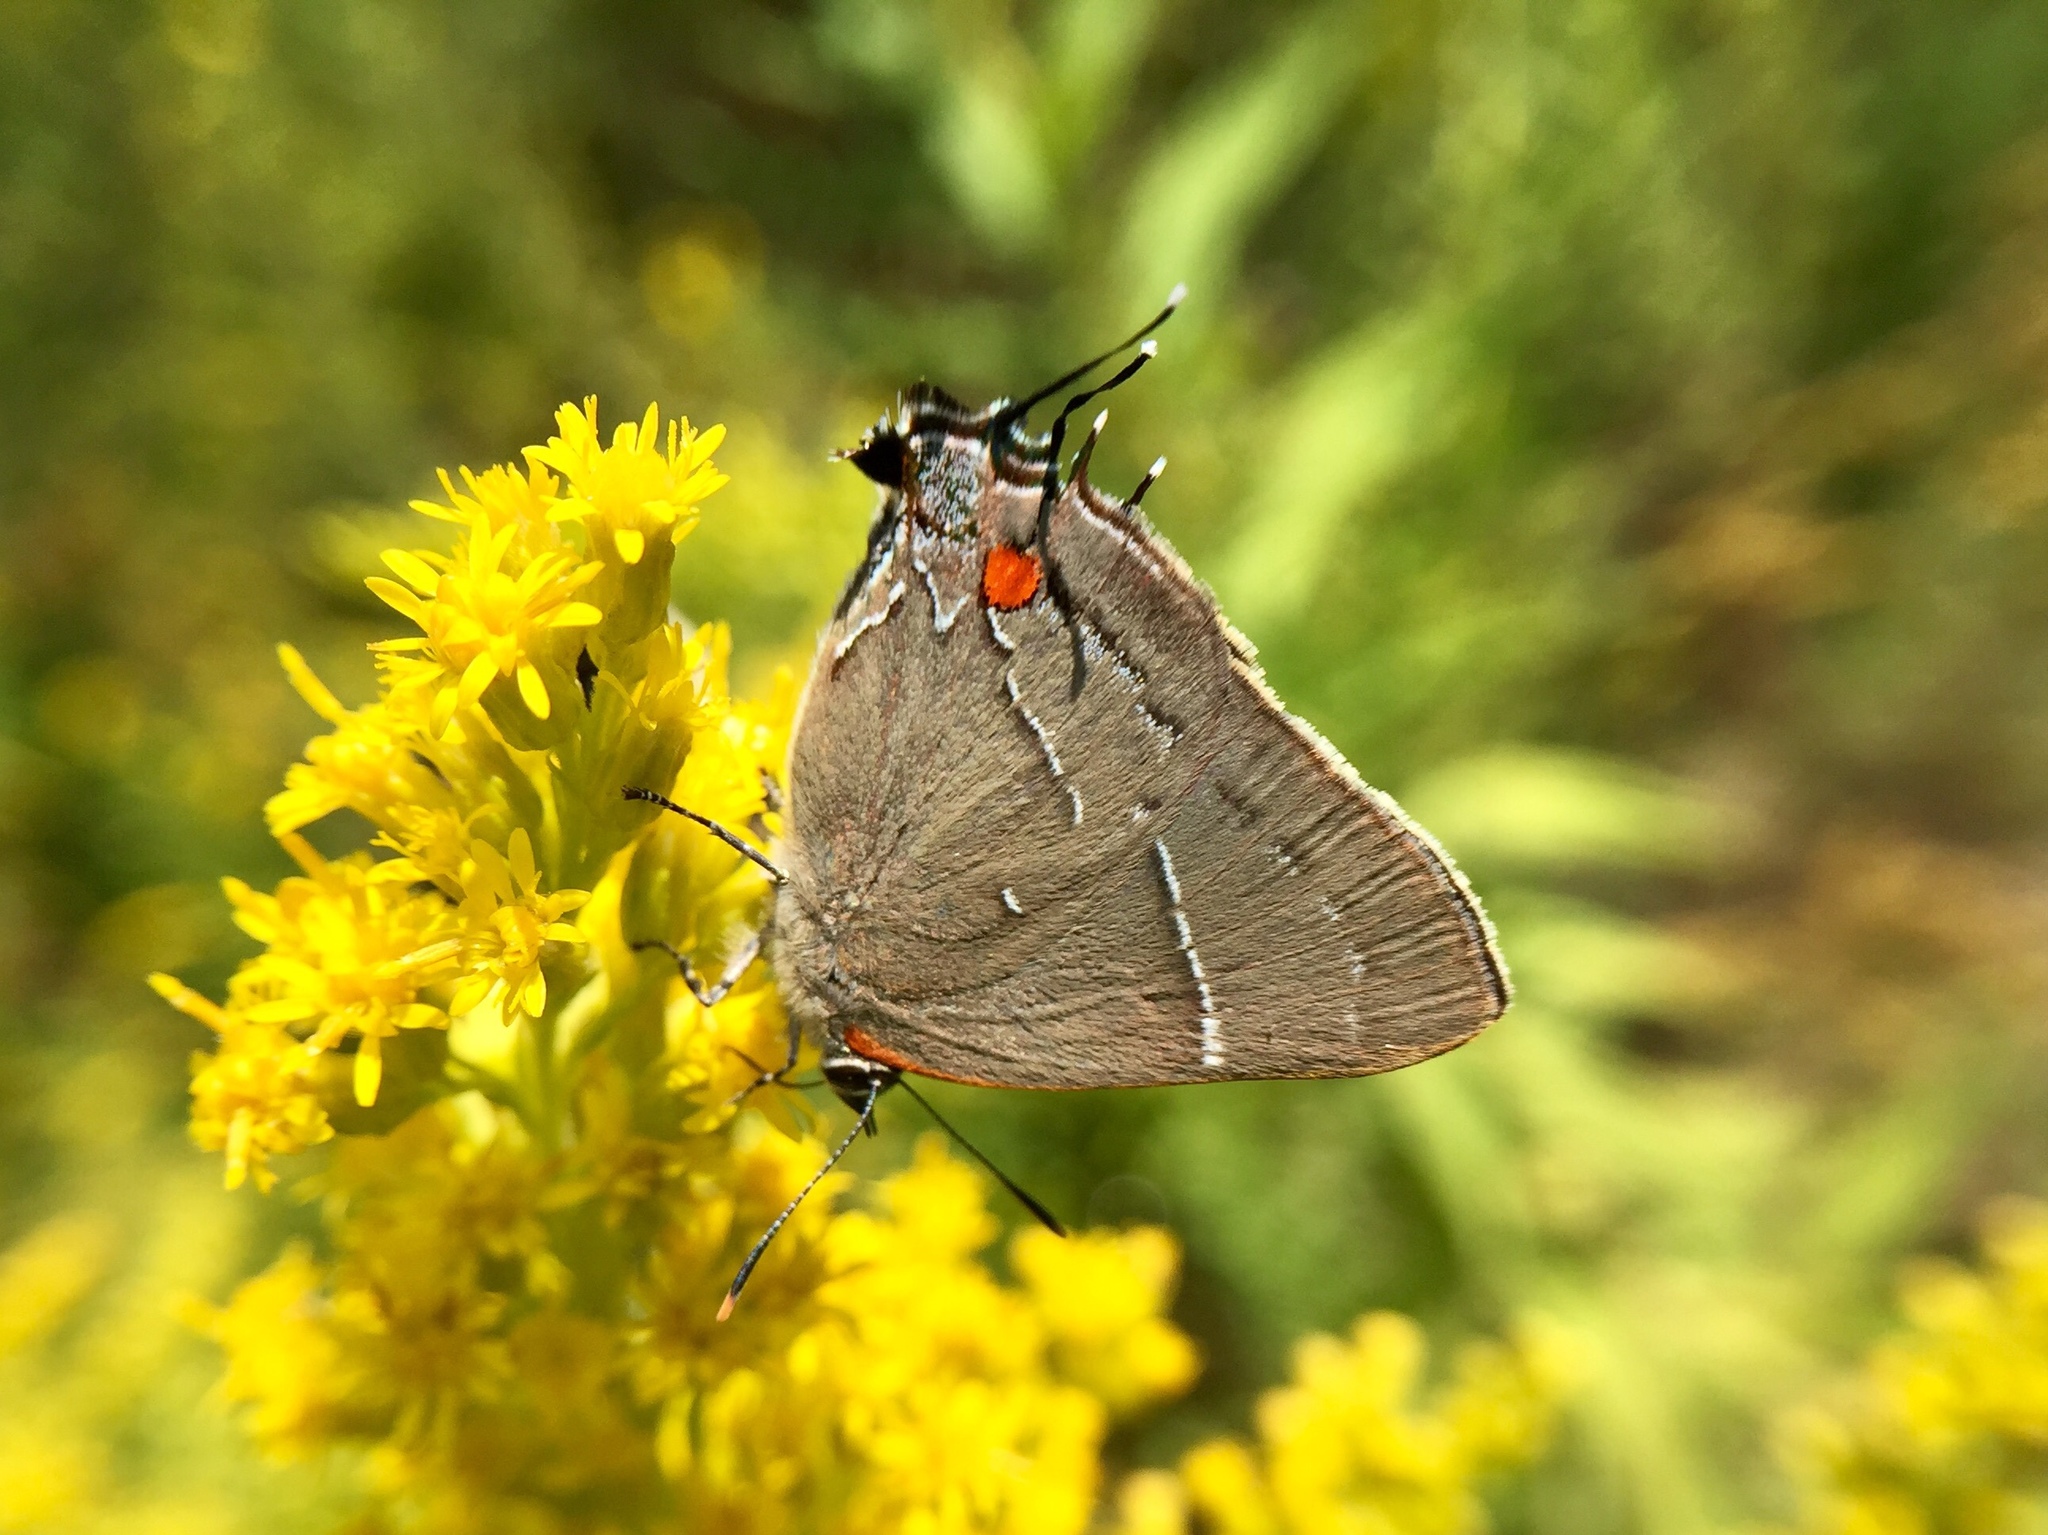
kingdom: Animalia
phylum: Arthropoda
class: Insecta
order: Lepidoptera
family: Lycaenidae
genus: Parrhasius
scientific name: Parrhasius m-album
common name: White m hairstreak
